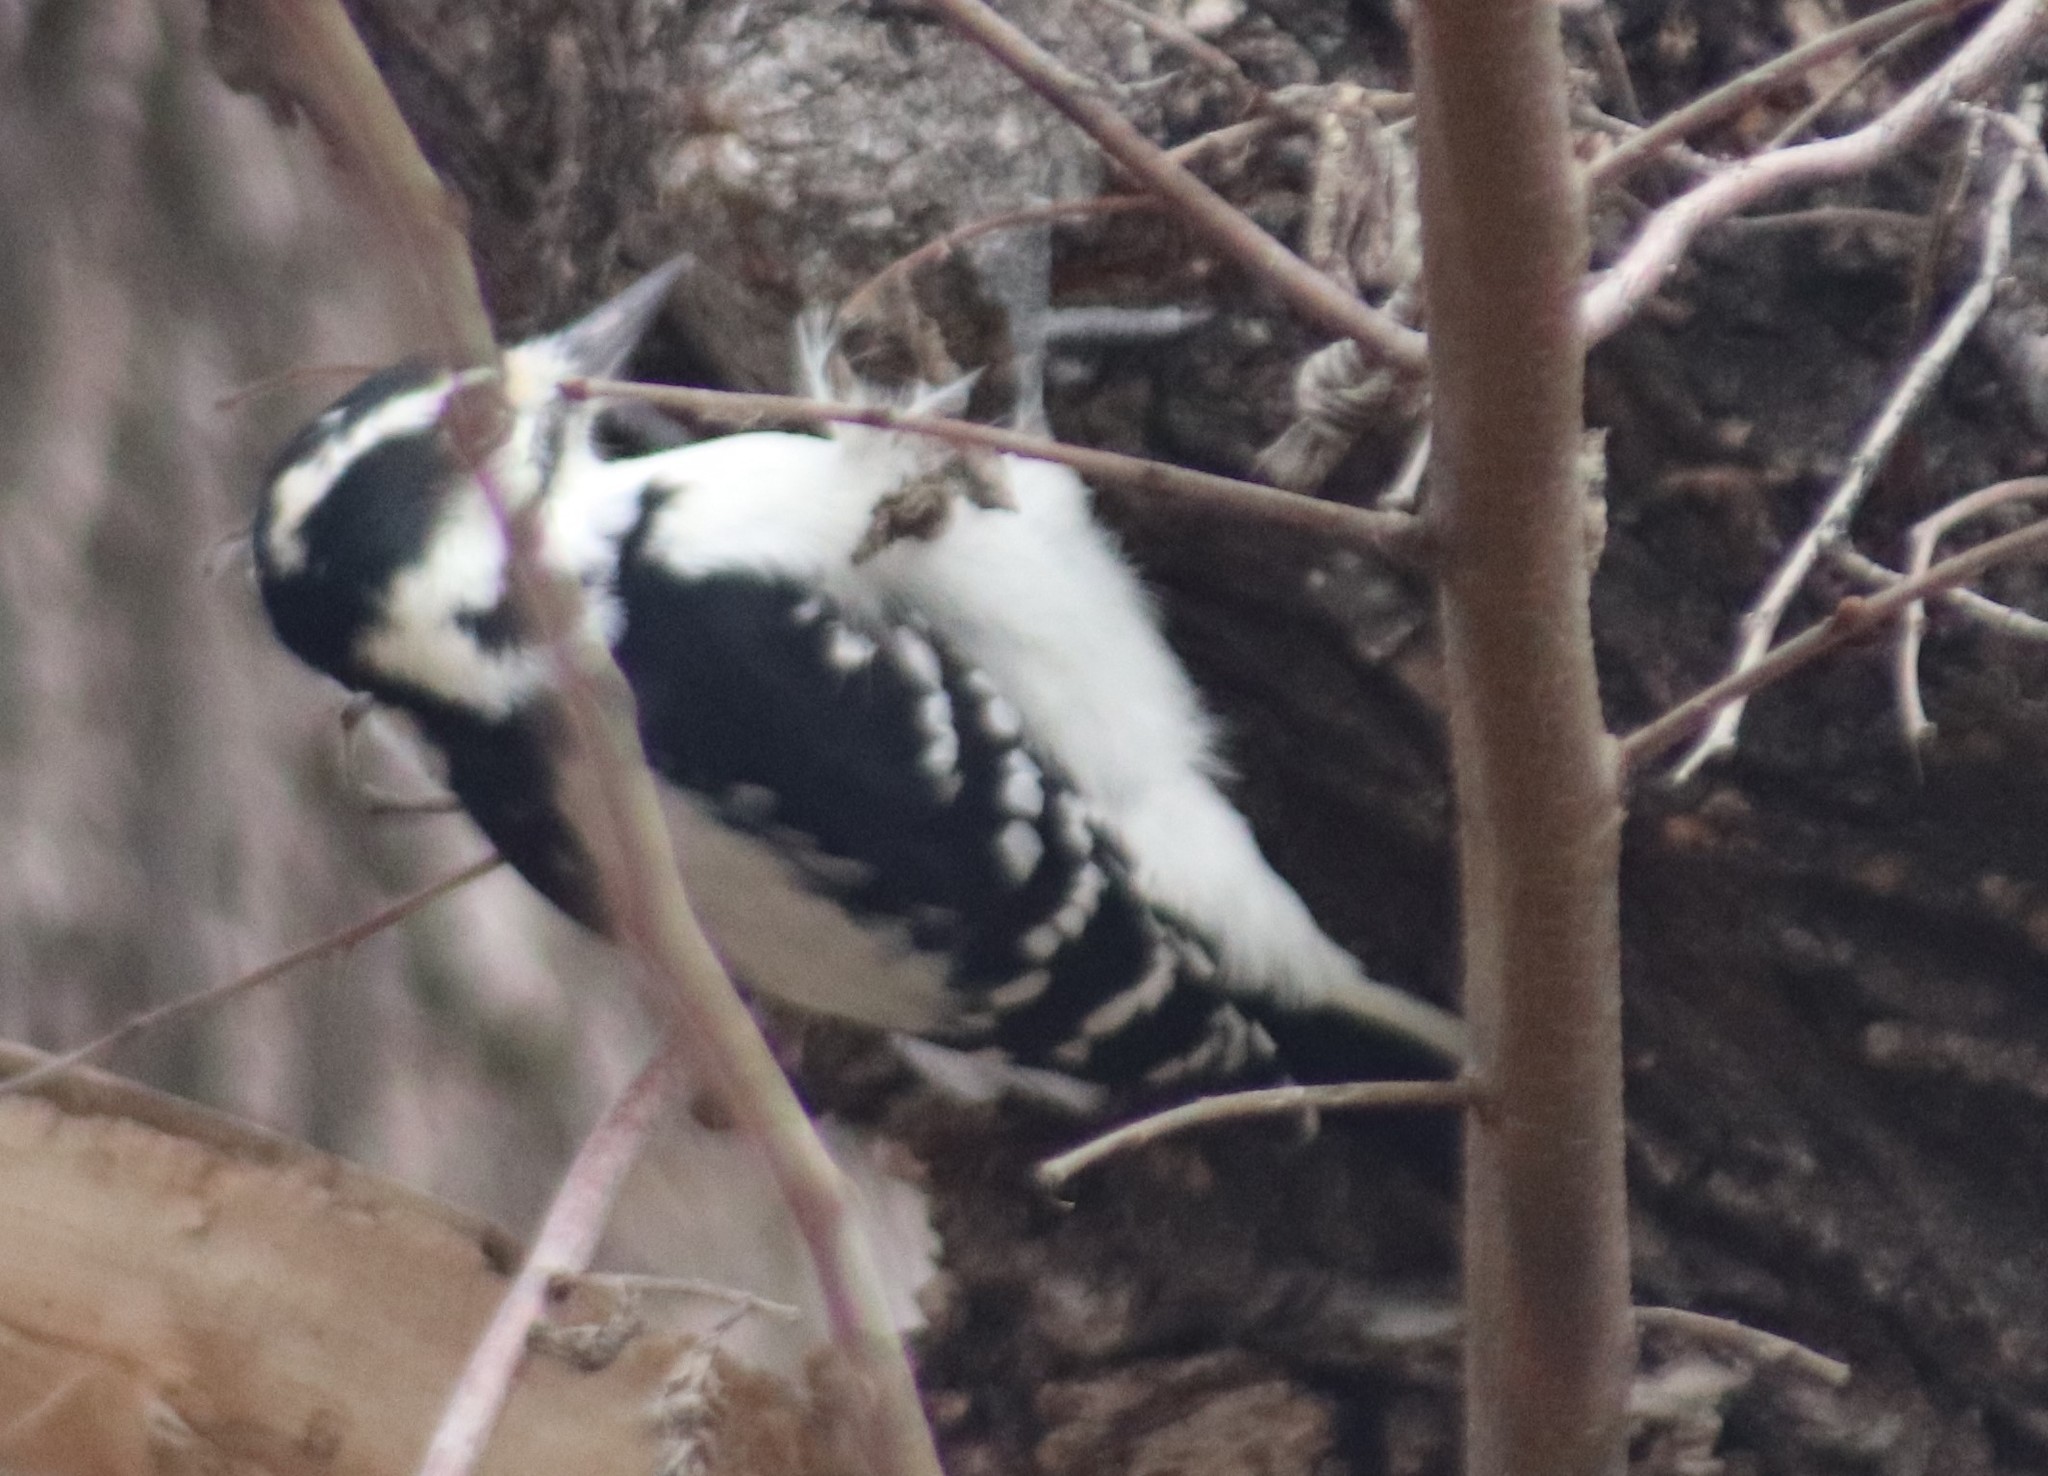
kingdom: Animalia
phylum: Chordata
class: Aves
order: Piciformes
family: Picidae
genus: Leuconotopicus
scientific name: Leuconotopicus villosus
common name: Hairy woodpecker
